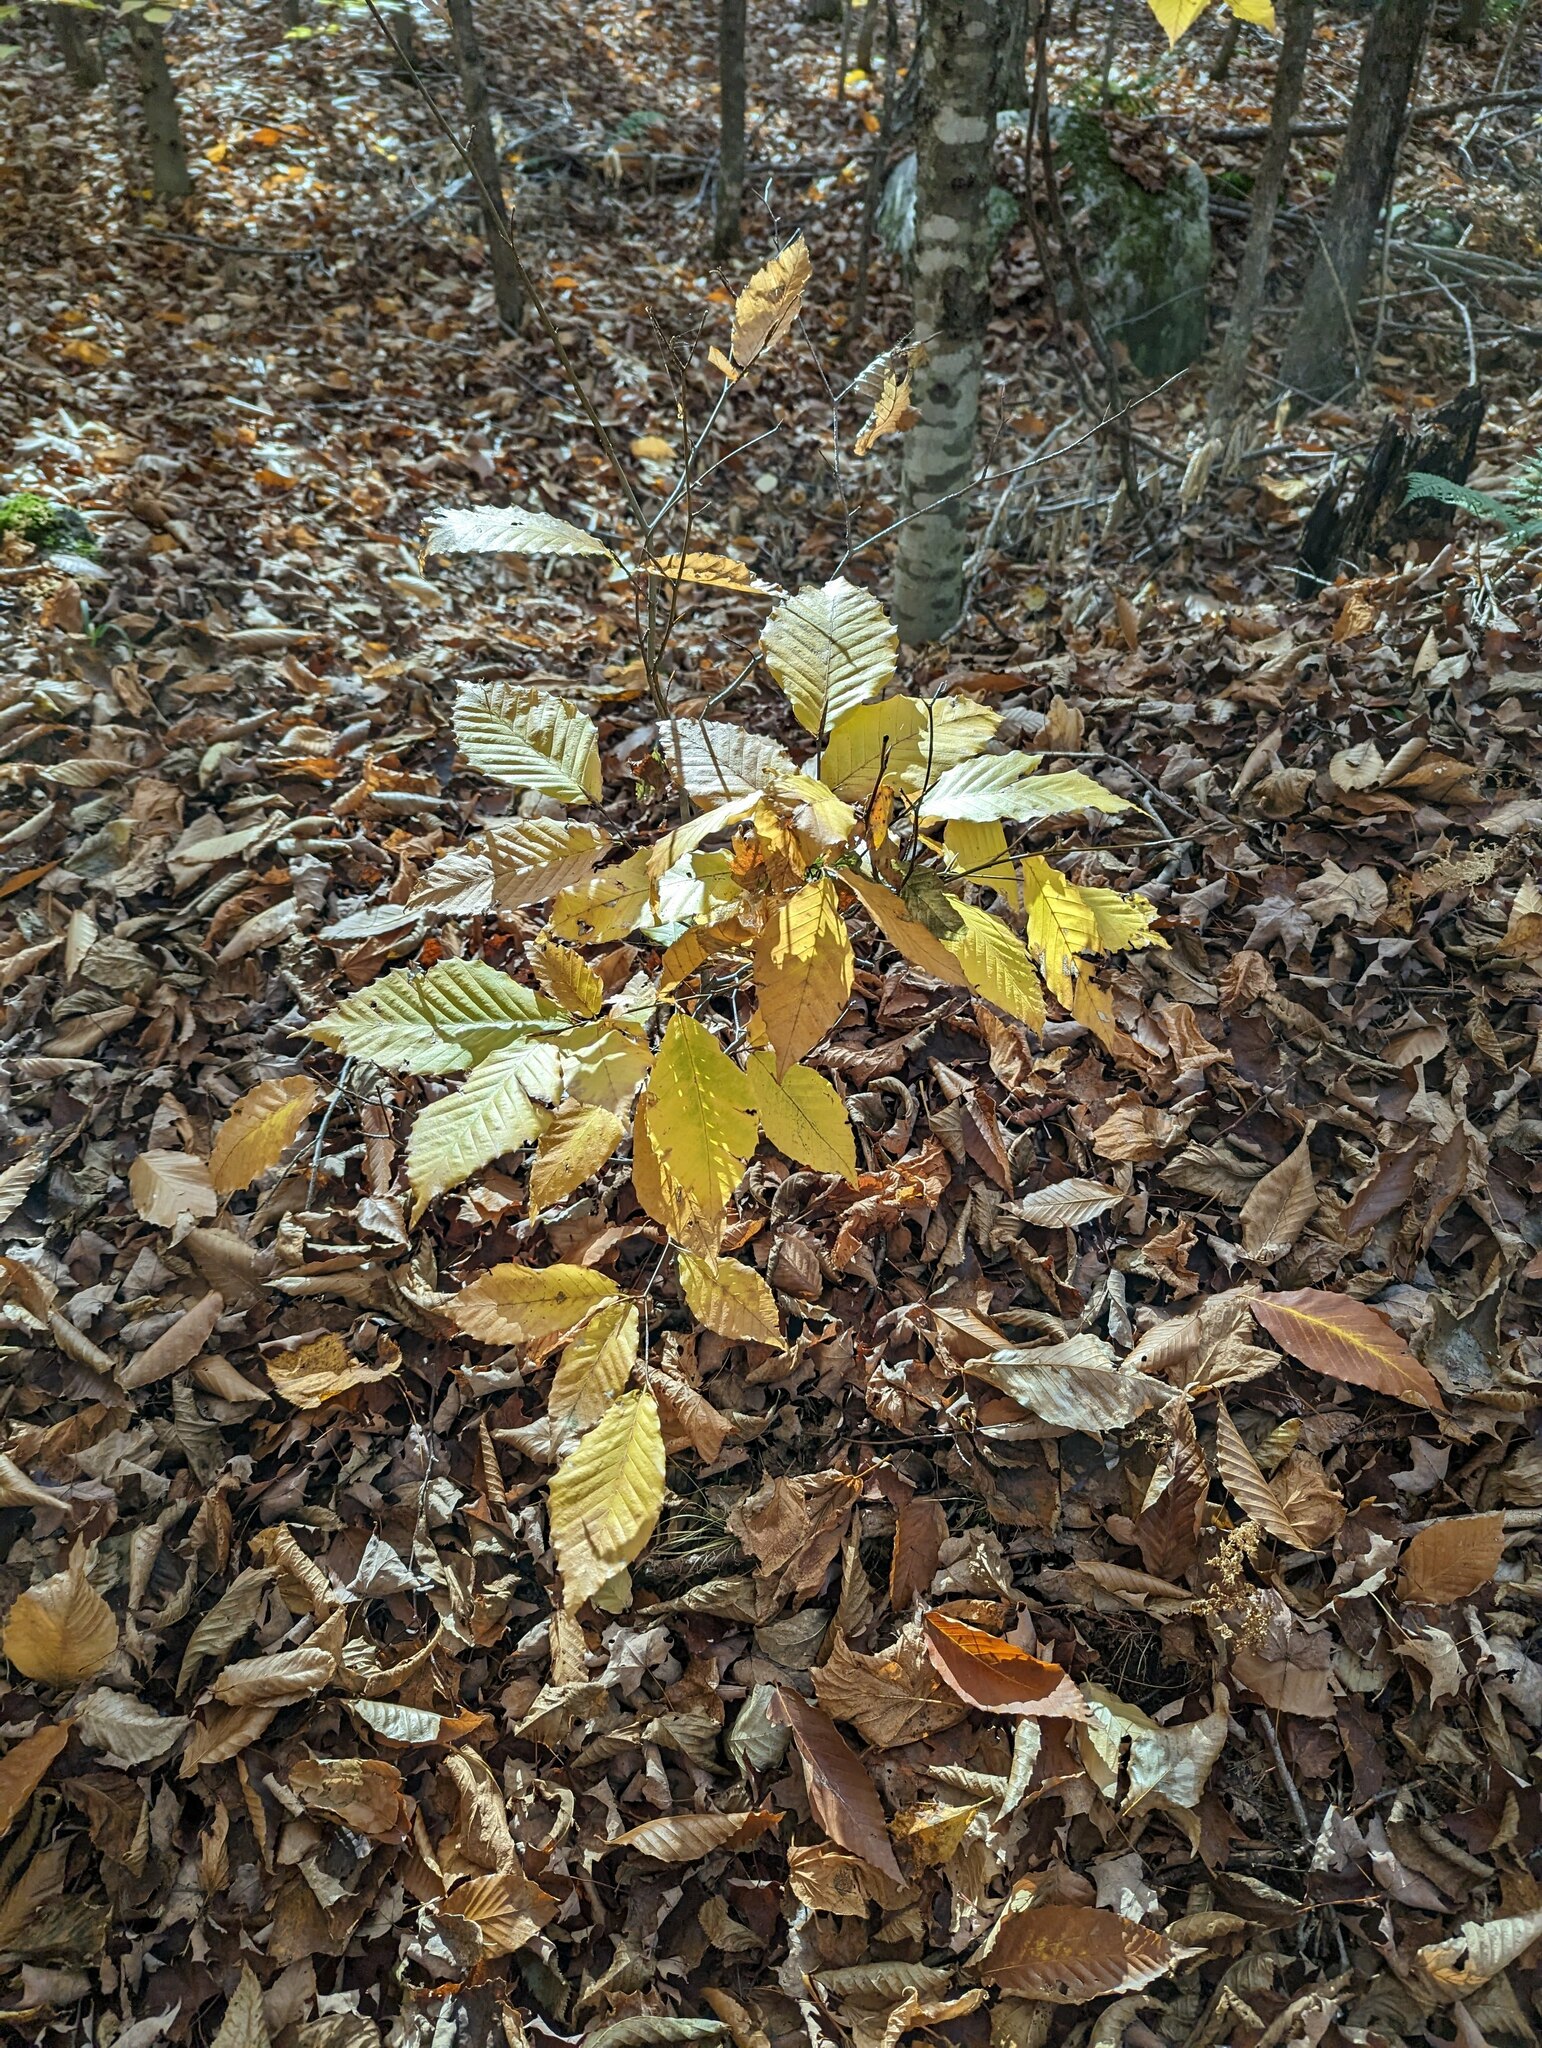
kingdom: Plantae
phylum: Tracheophyta
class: Magnoliopsida
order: Fagales
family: Fagaceae
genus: Fagus
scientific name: Fagus grandifolia
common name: American beech
